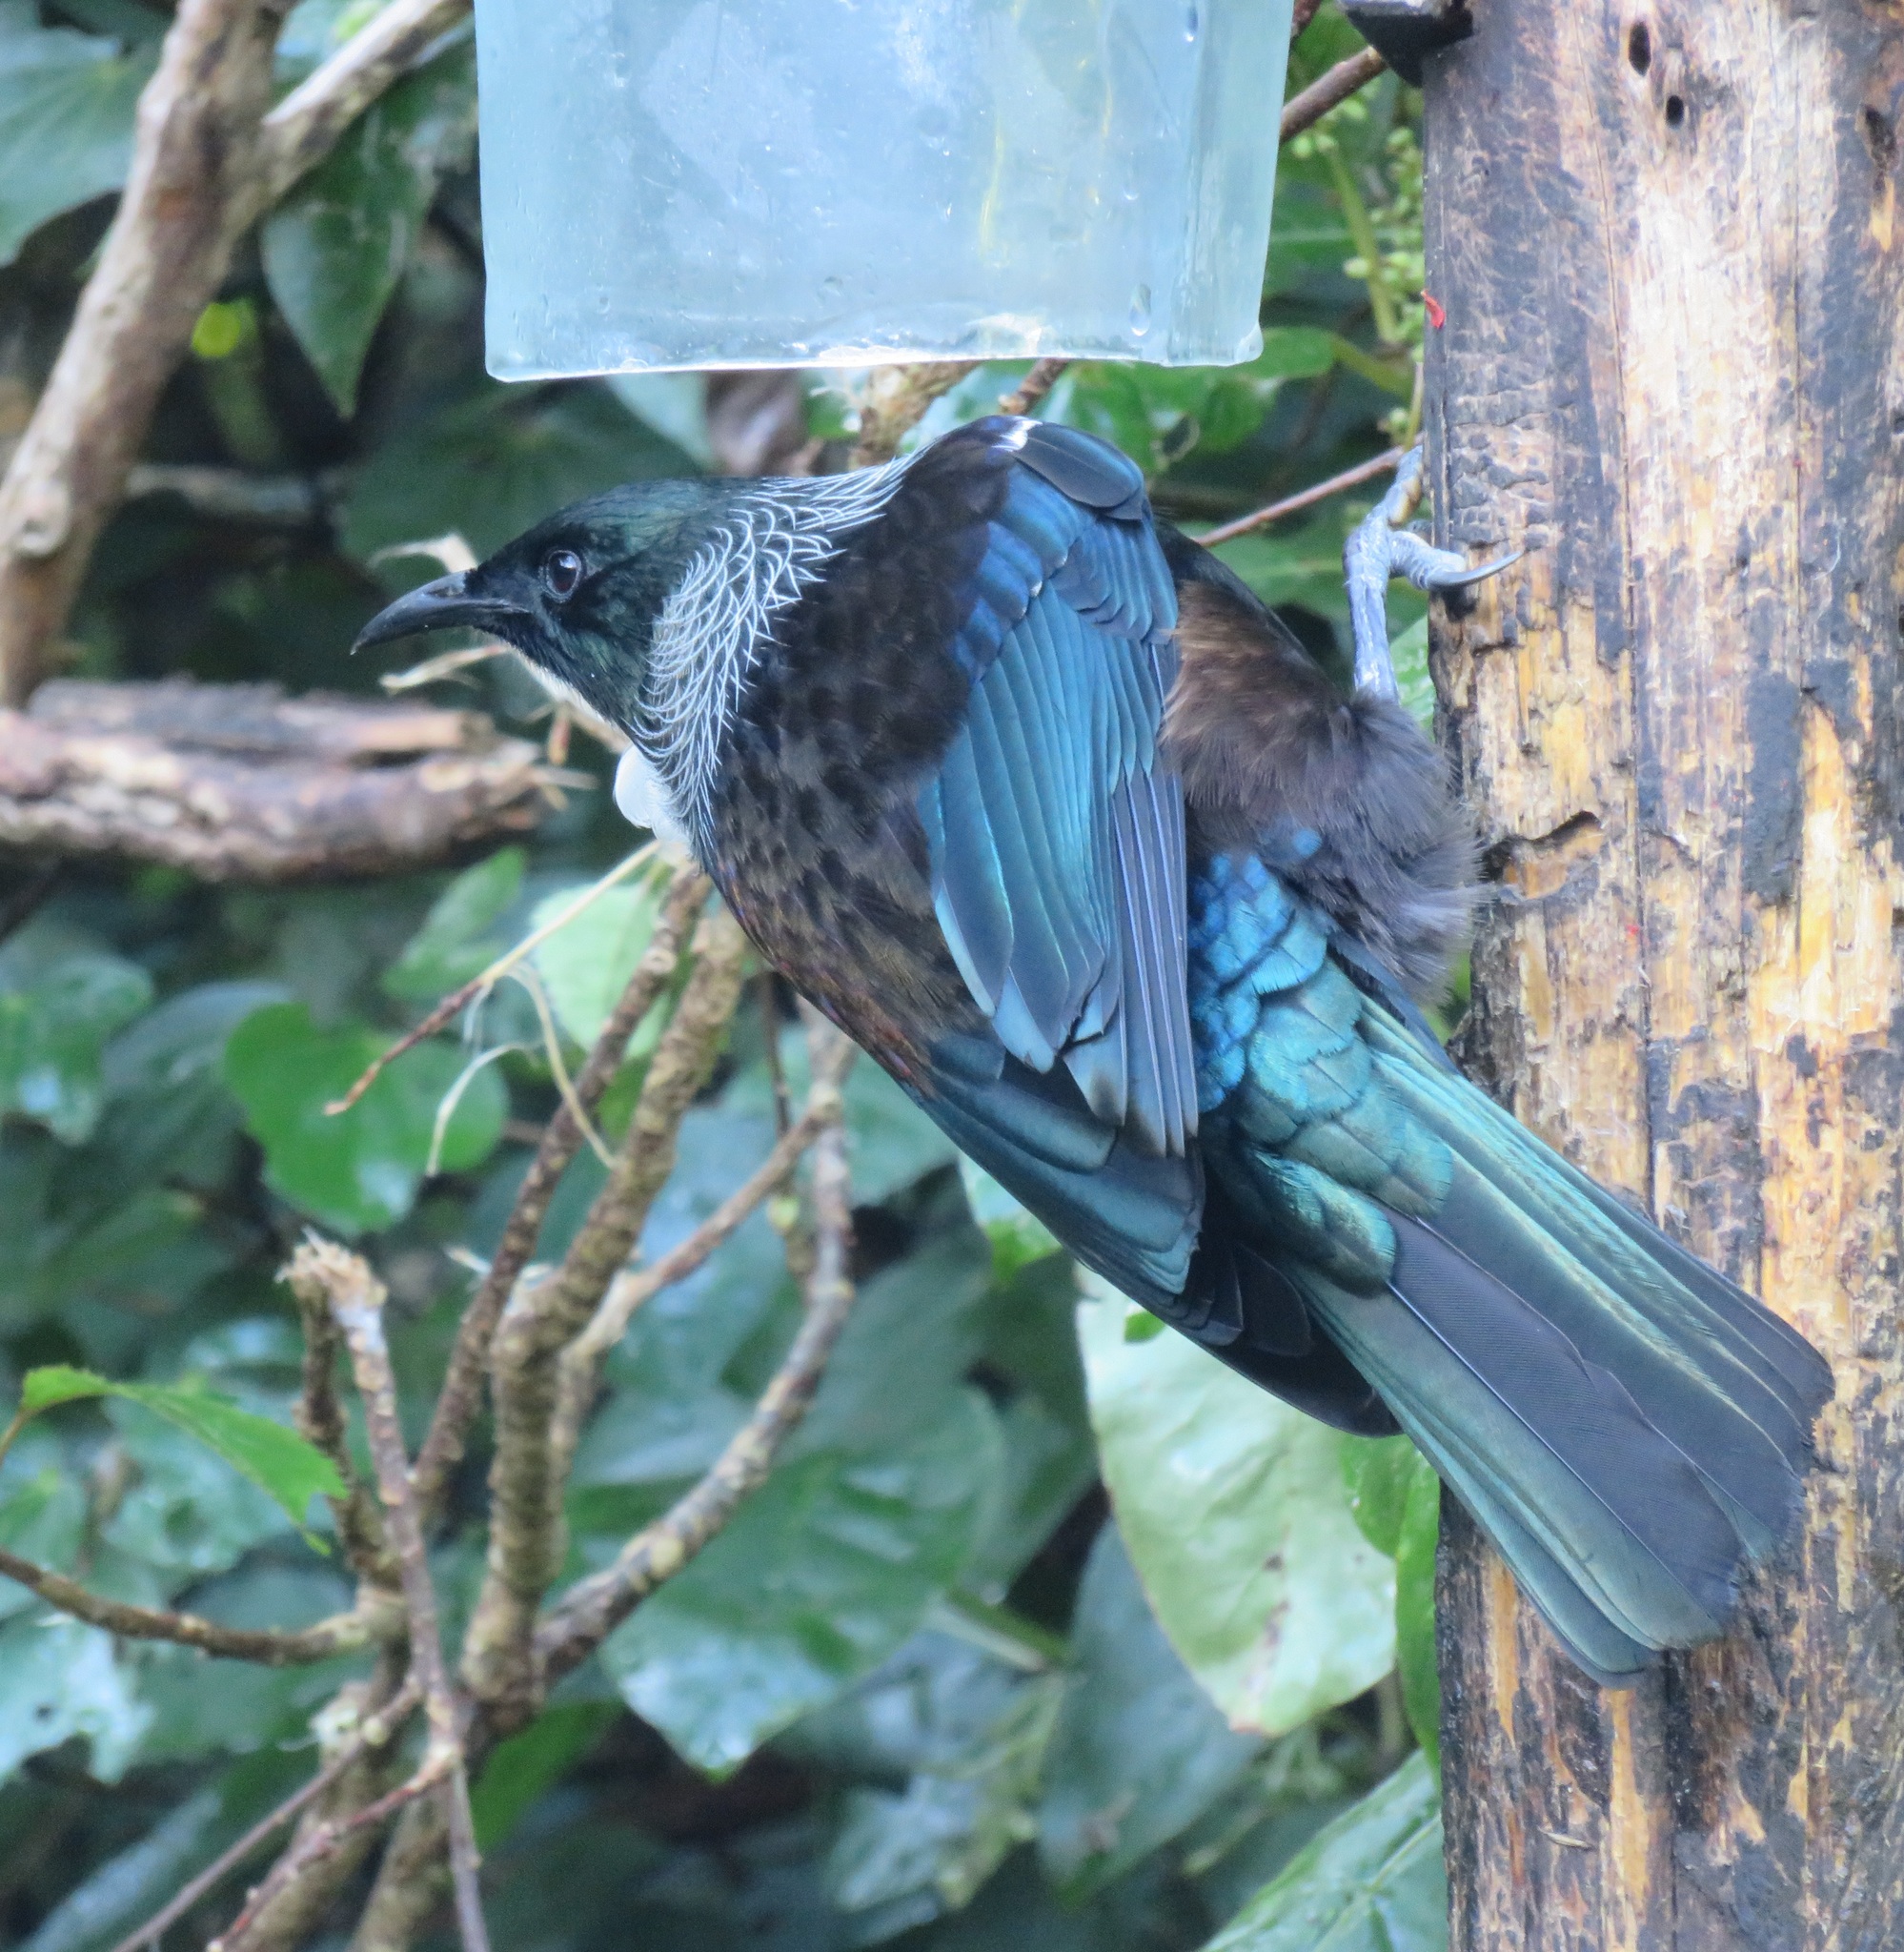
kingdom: Animalia
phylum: Chordata
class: Aves
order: Passeriformes
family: Meliphagidae
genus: Prosthemadera
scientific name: Prosthemadera novaeseelandiae
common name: Tui
